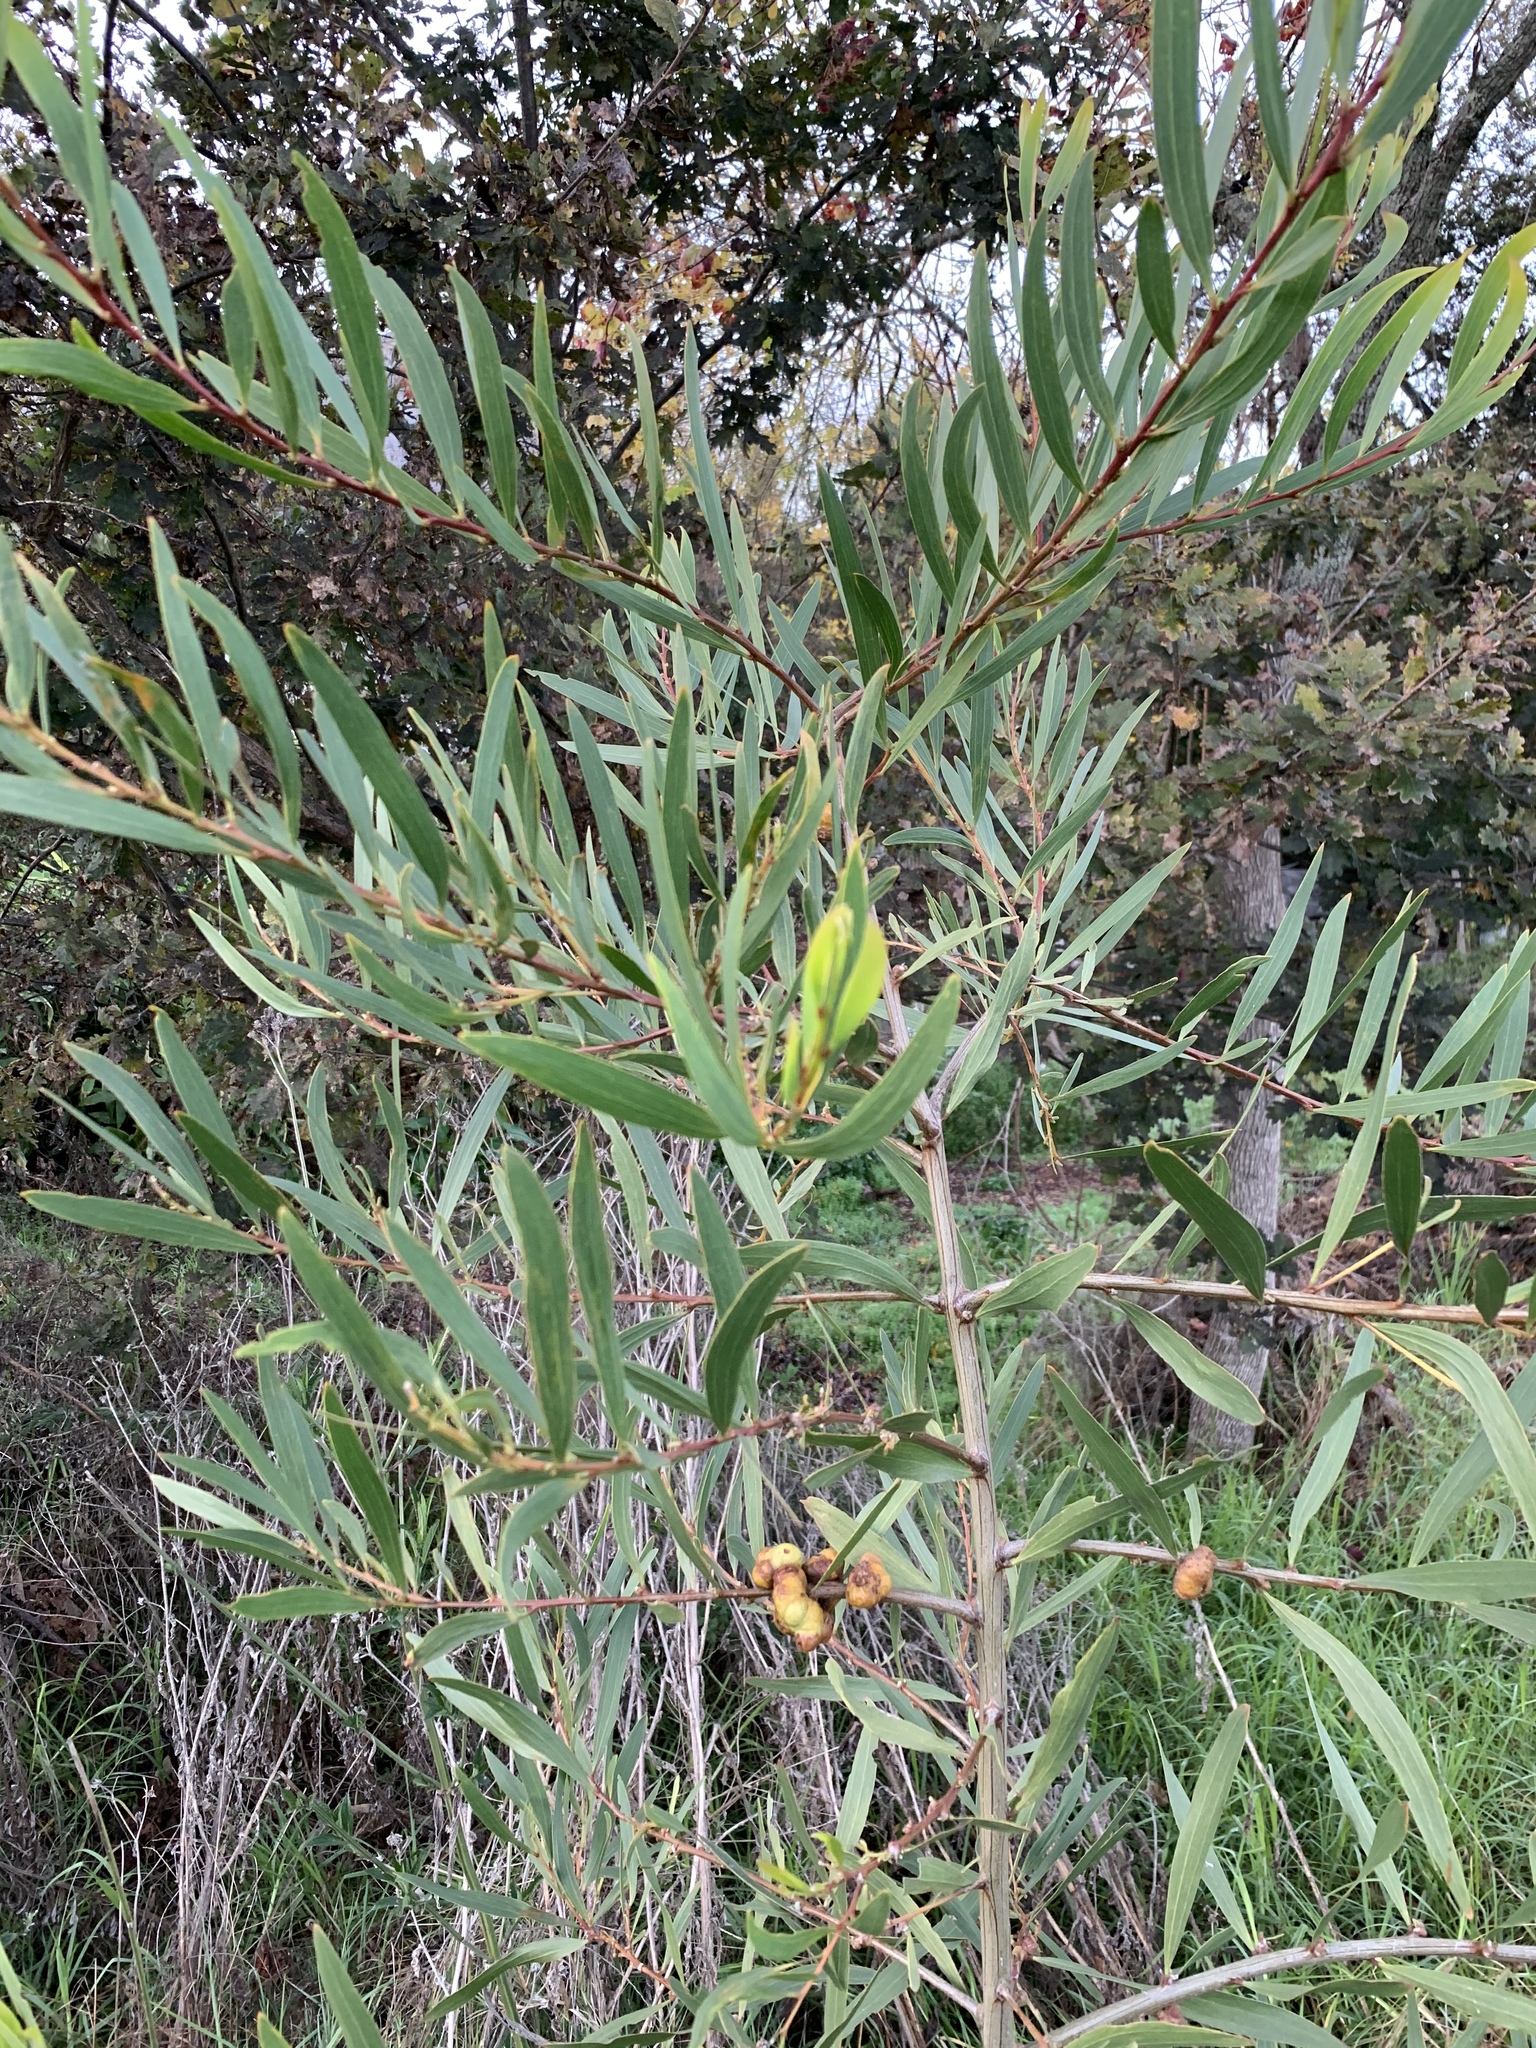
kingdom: Plantae
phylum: Tracheophyta
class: Magnoliopsida
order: Fabales
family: Fabaceae
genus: Acacia
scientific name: Acacia longifolia
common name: Sydney golden wattle
